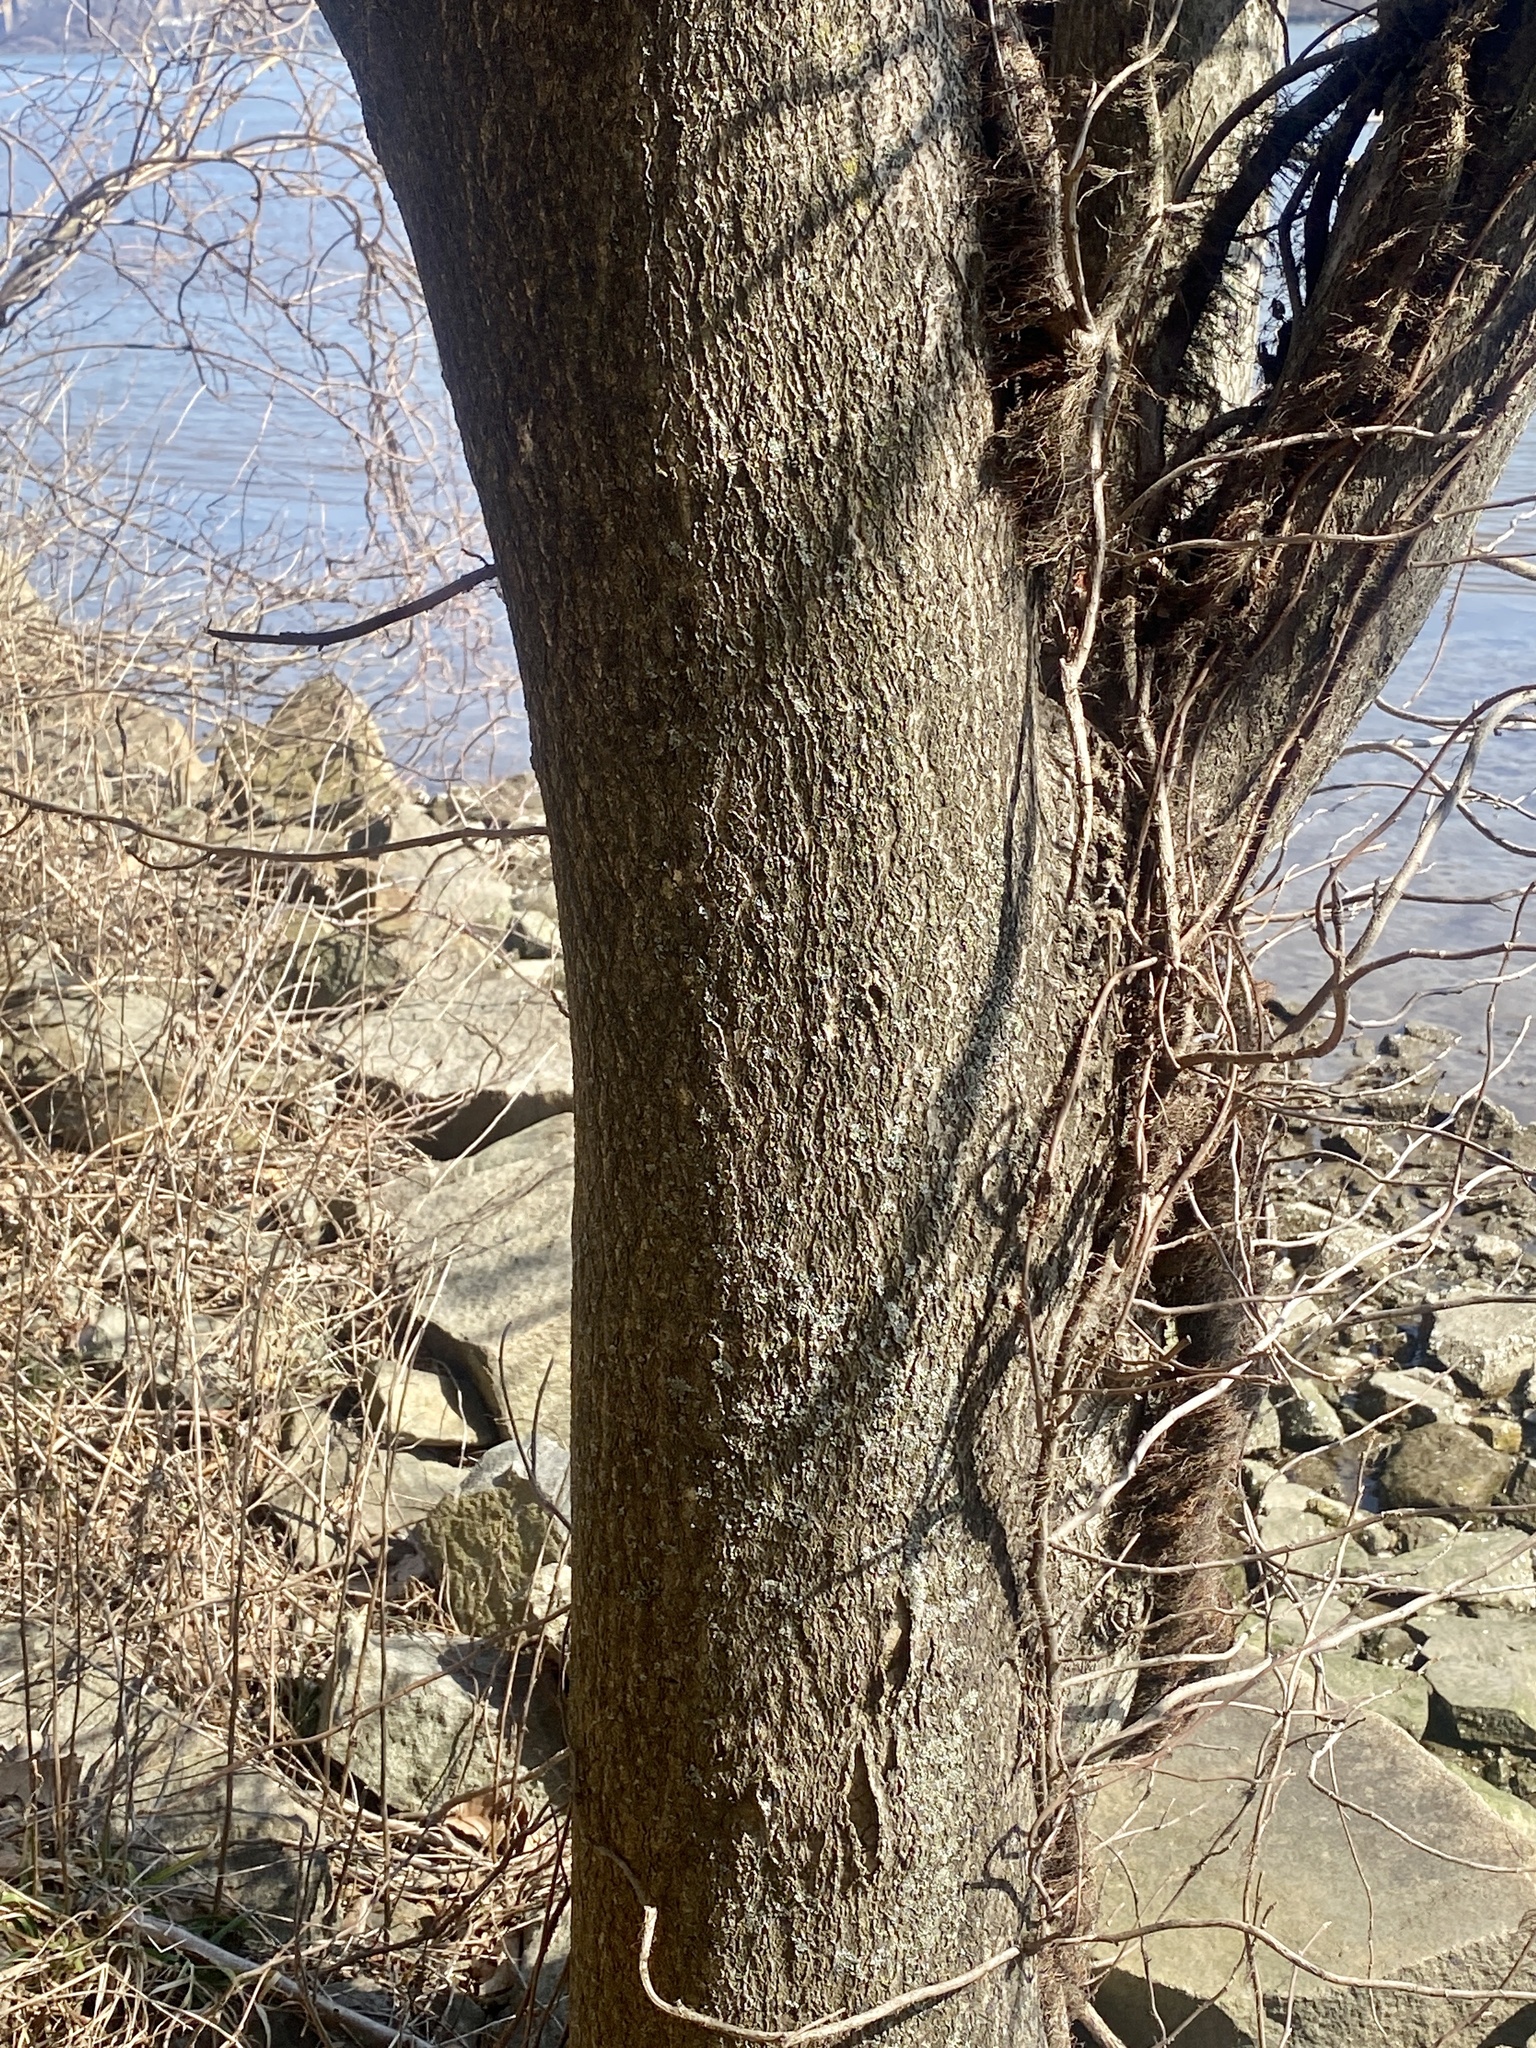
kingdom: Plantae
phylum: Tracheophyta
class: Magnoliopsida
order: Sapindales
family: Simaroubaceae
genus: Ailanthus
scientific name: Ailanthus altissima
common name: Tree-of-heaven
